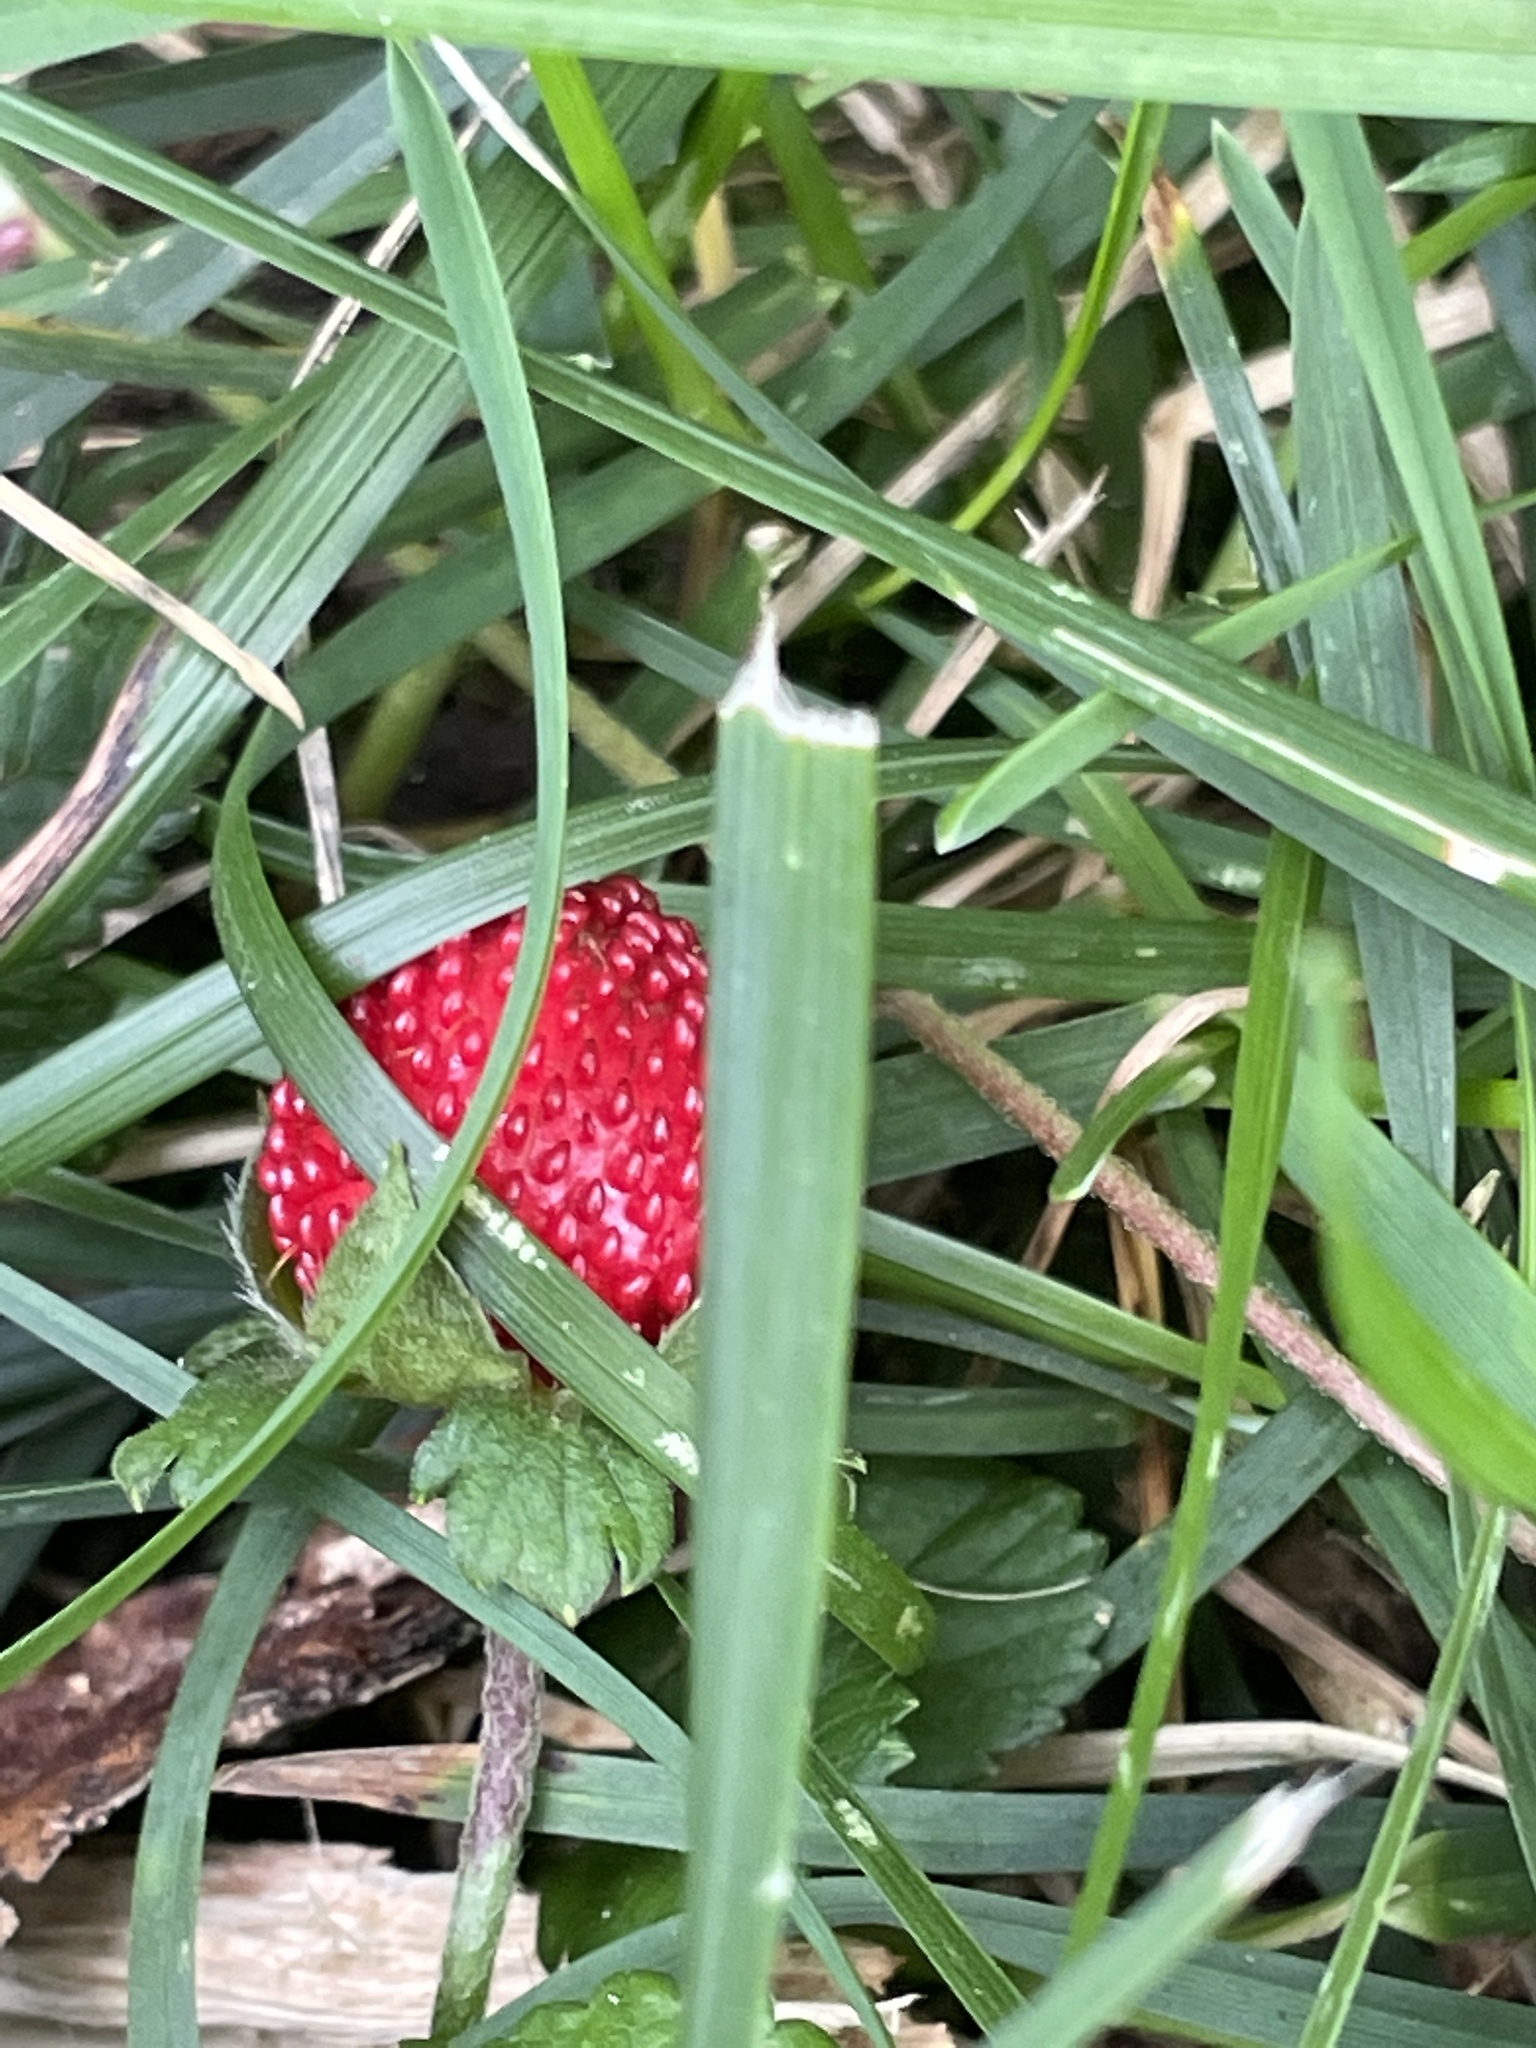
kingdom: Plantae
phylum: Tracheophyta
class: Magnoliopsida
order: Rosales
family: Rosaceae
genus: Potentilla
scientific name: Potentilla indica
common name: Yellow-flowered strawberry
